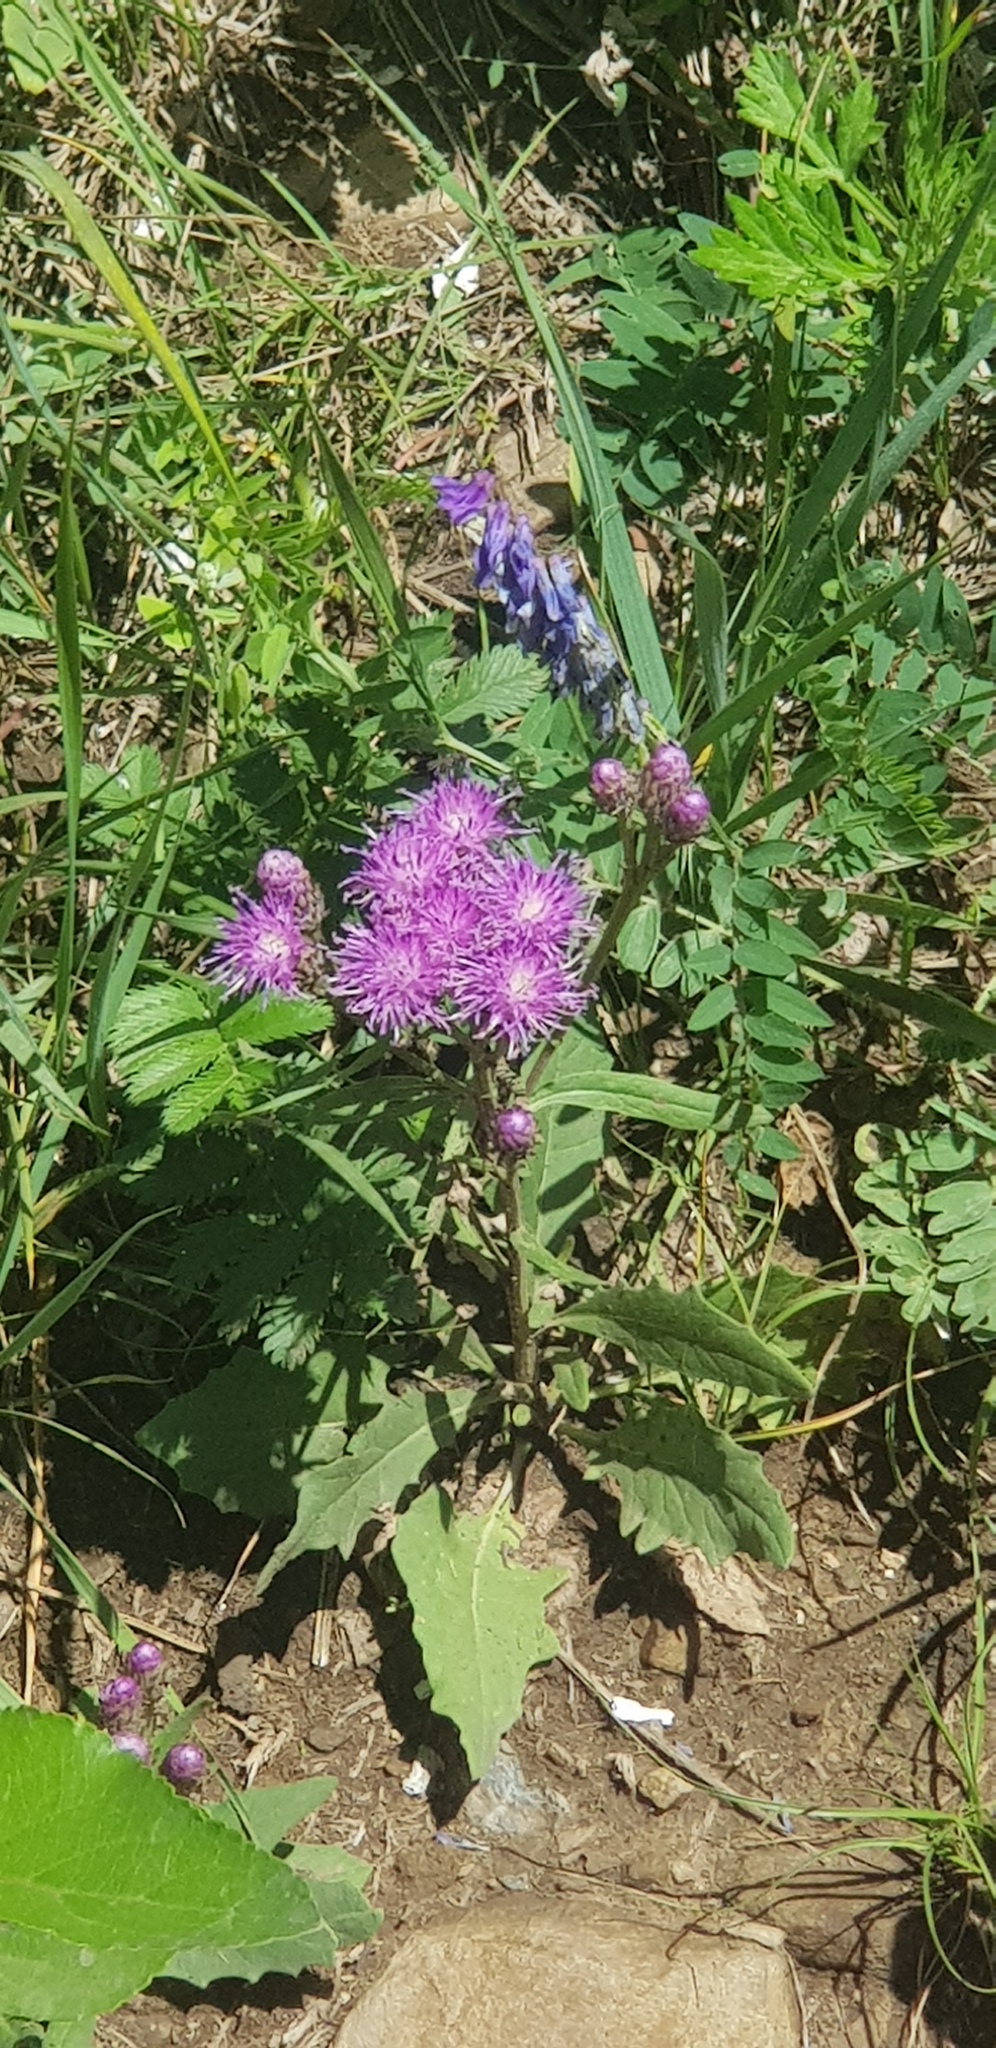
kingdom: Plantae
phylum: Tracheophyta
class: Magnoliopsida
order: Asterales
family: Asteraceae
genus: Saussurea
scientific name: Saussurea amara
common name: Alberta sawwort
